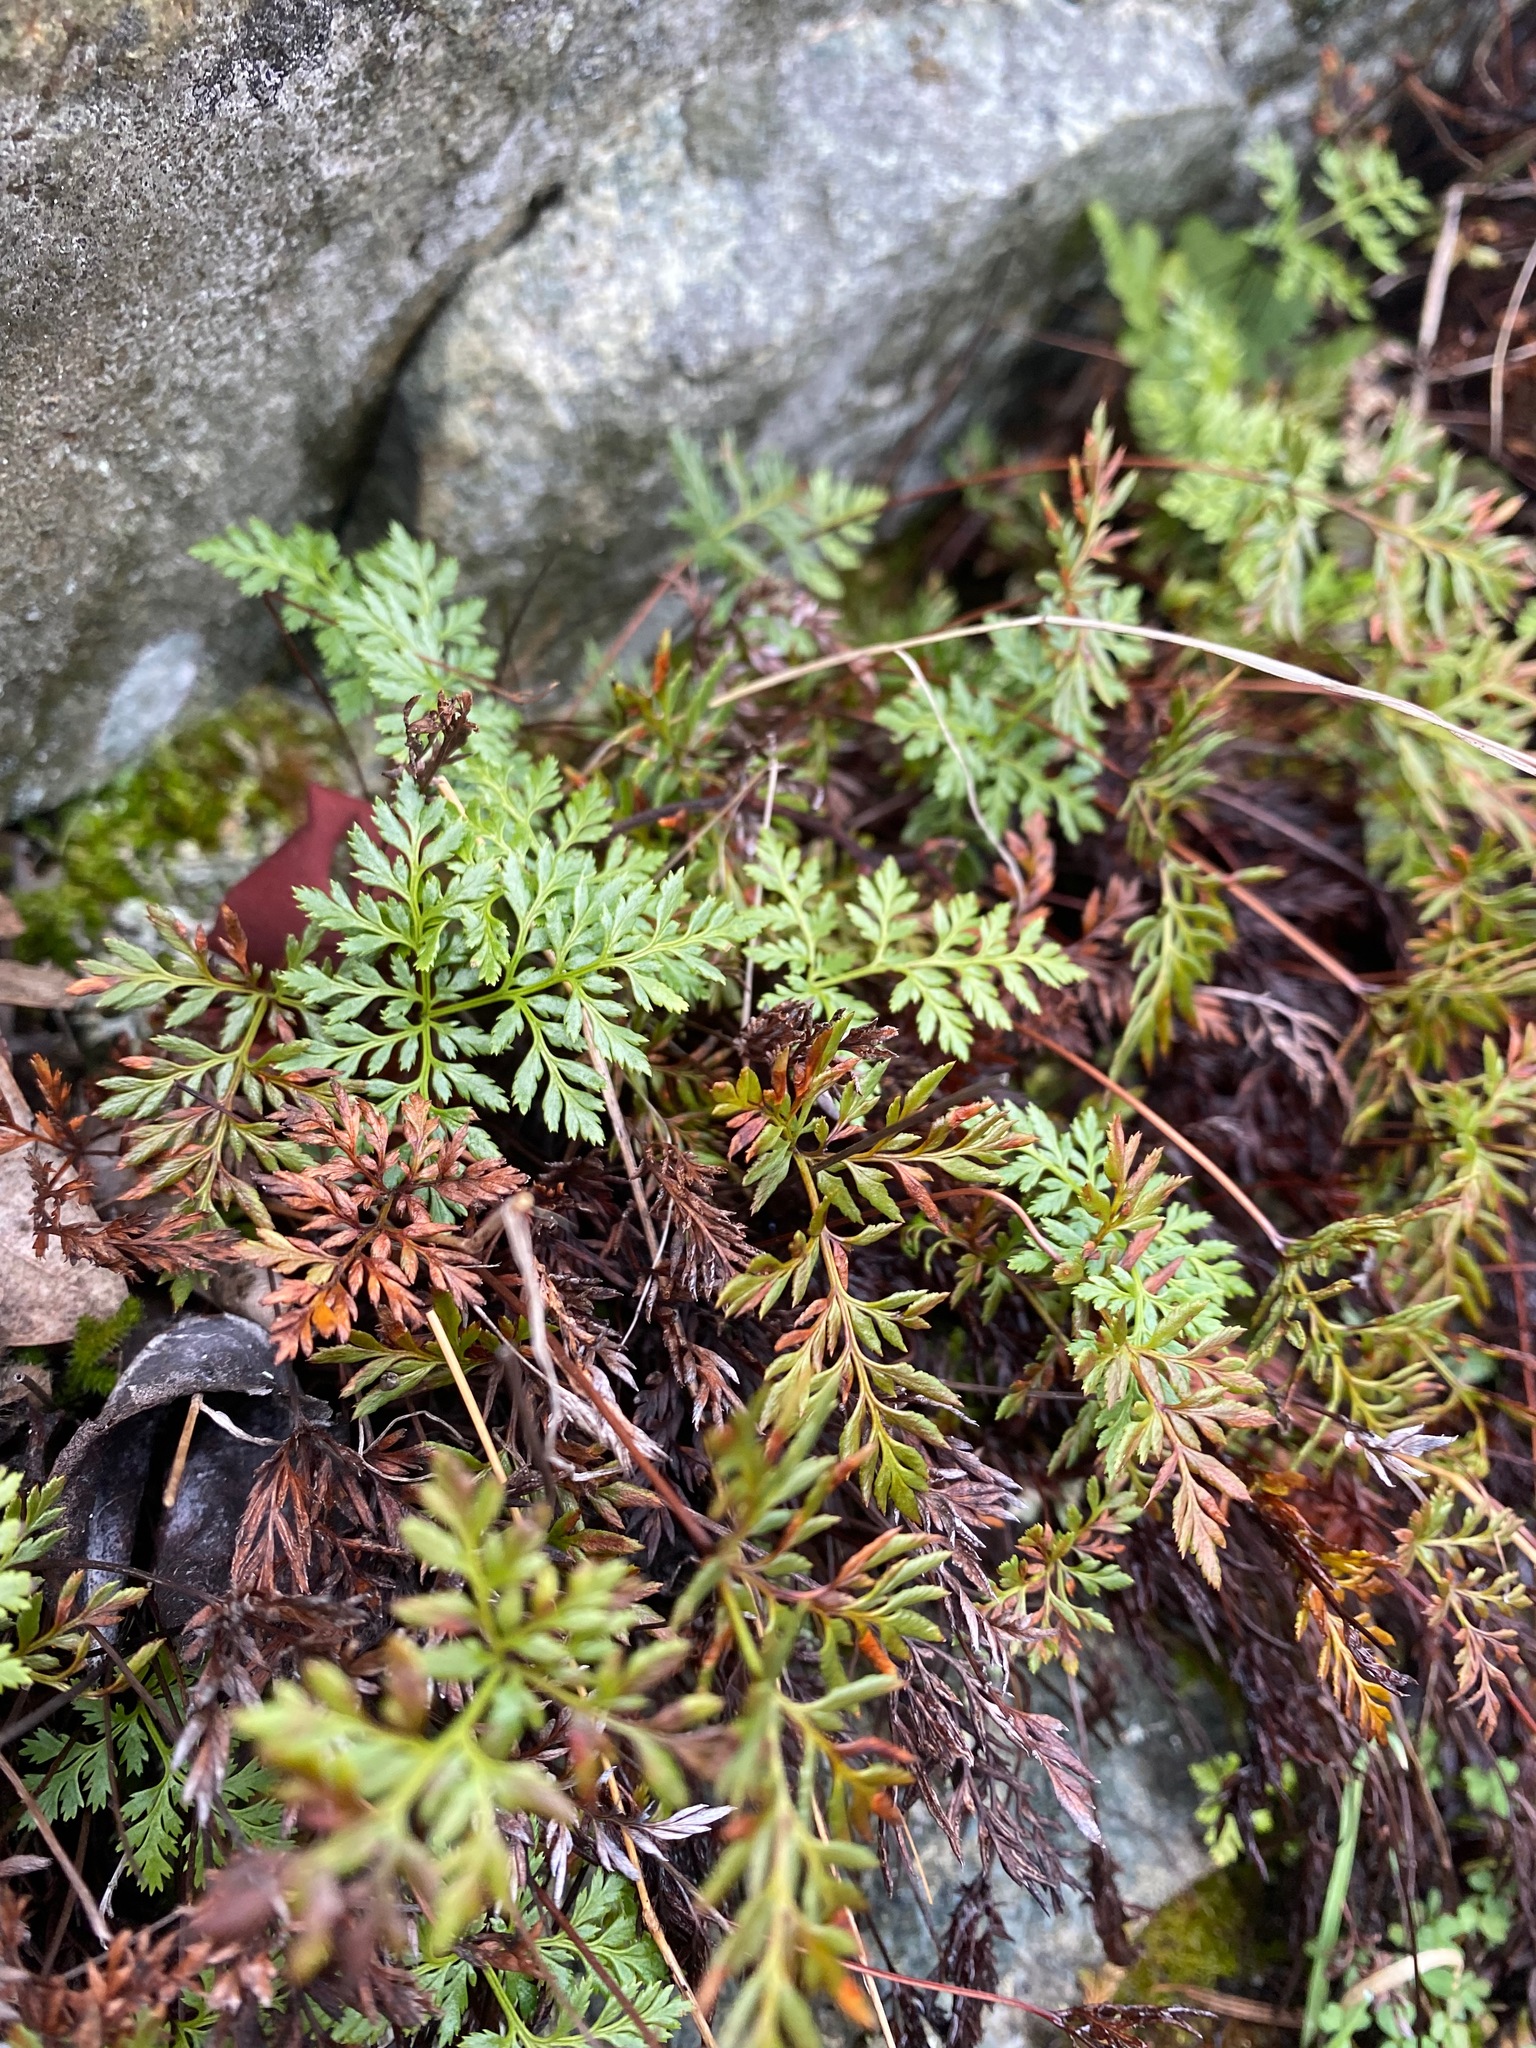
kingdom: Plantae
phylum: Tracheophyta
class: Polypodiopsida
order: Polypodiales
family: Pteridaceae
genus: Aspidotis
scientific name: Aspidotis densa
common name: Indian's dream
